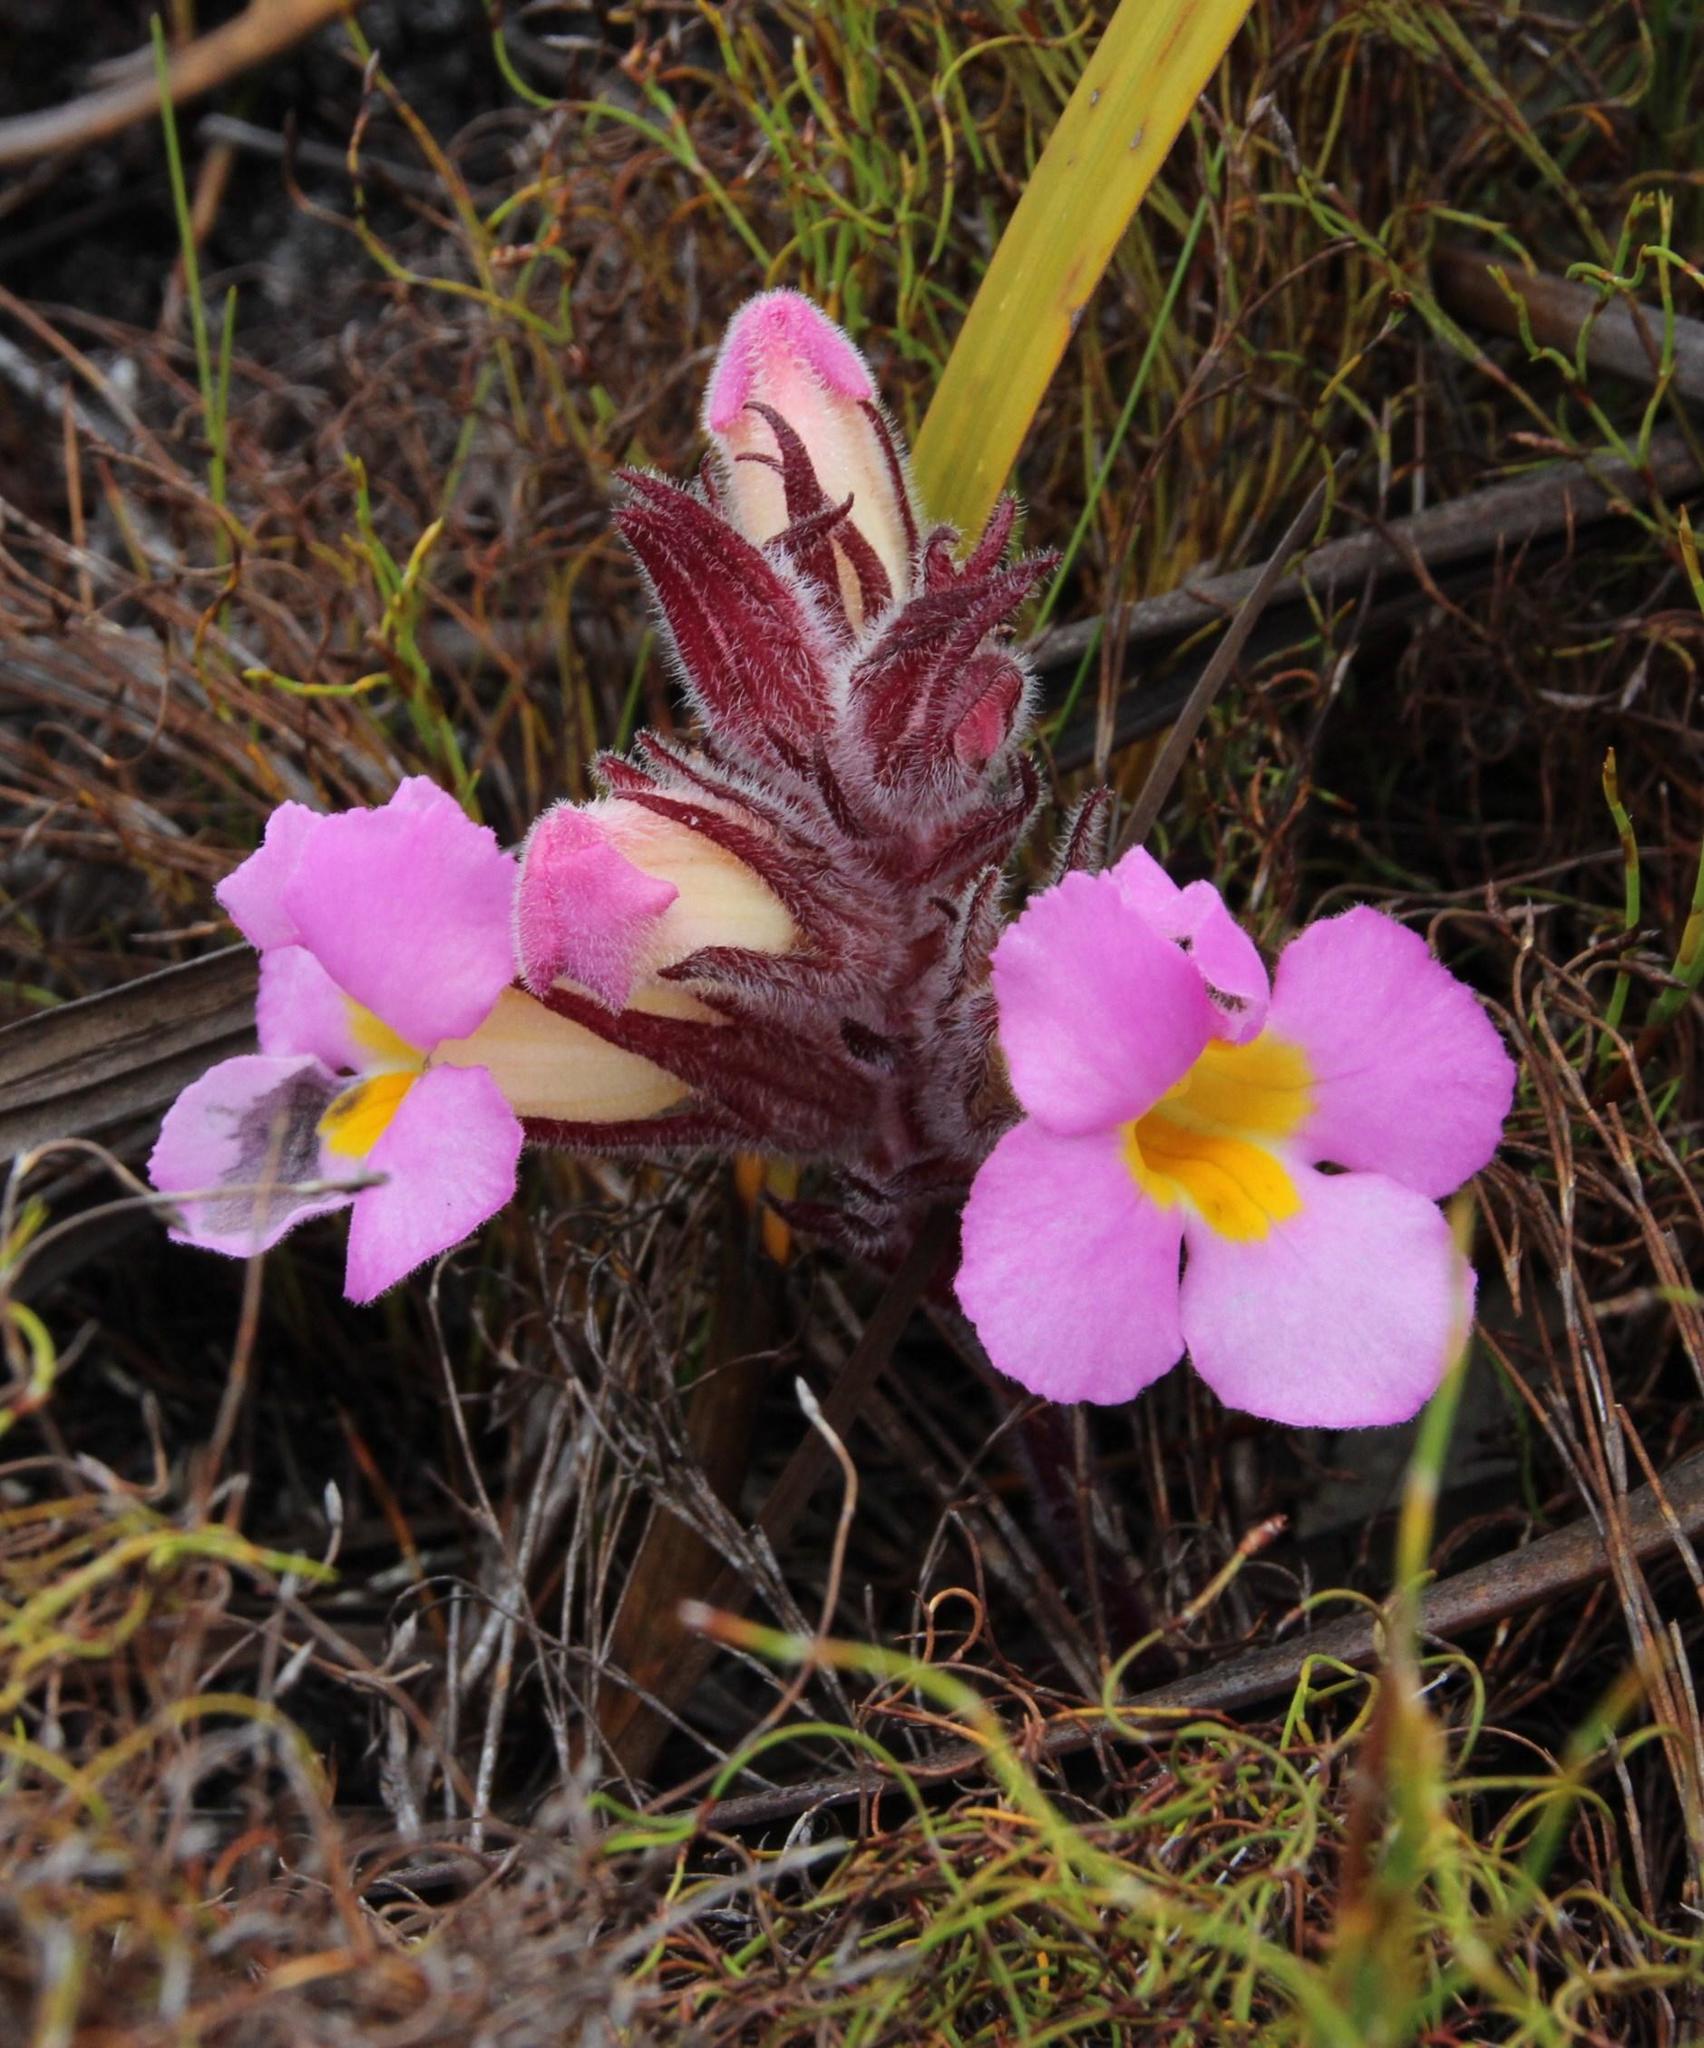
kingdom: Plantae
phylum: Tracheophyta
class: Magnoliopsida
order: Lamiales
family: Orobanchaceae
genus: Harveya
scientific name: Harveya purpurea
